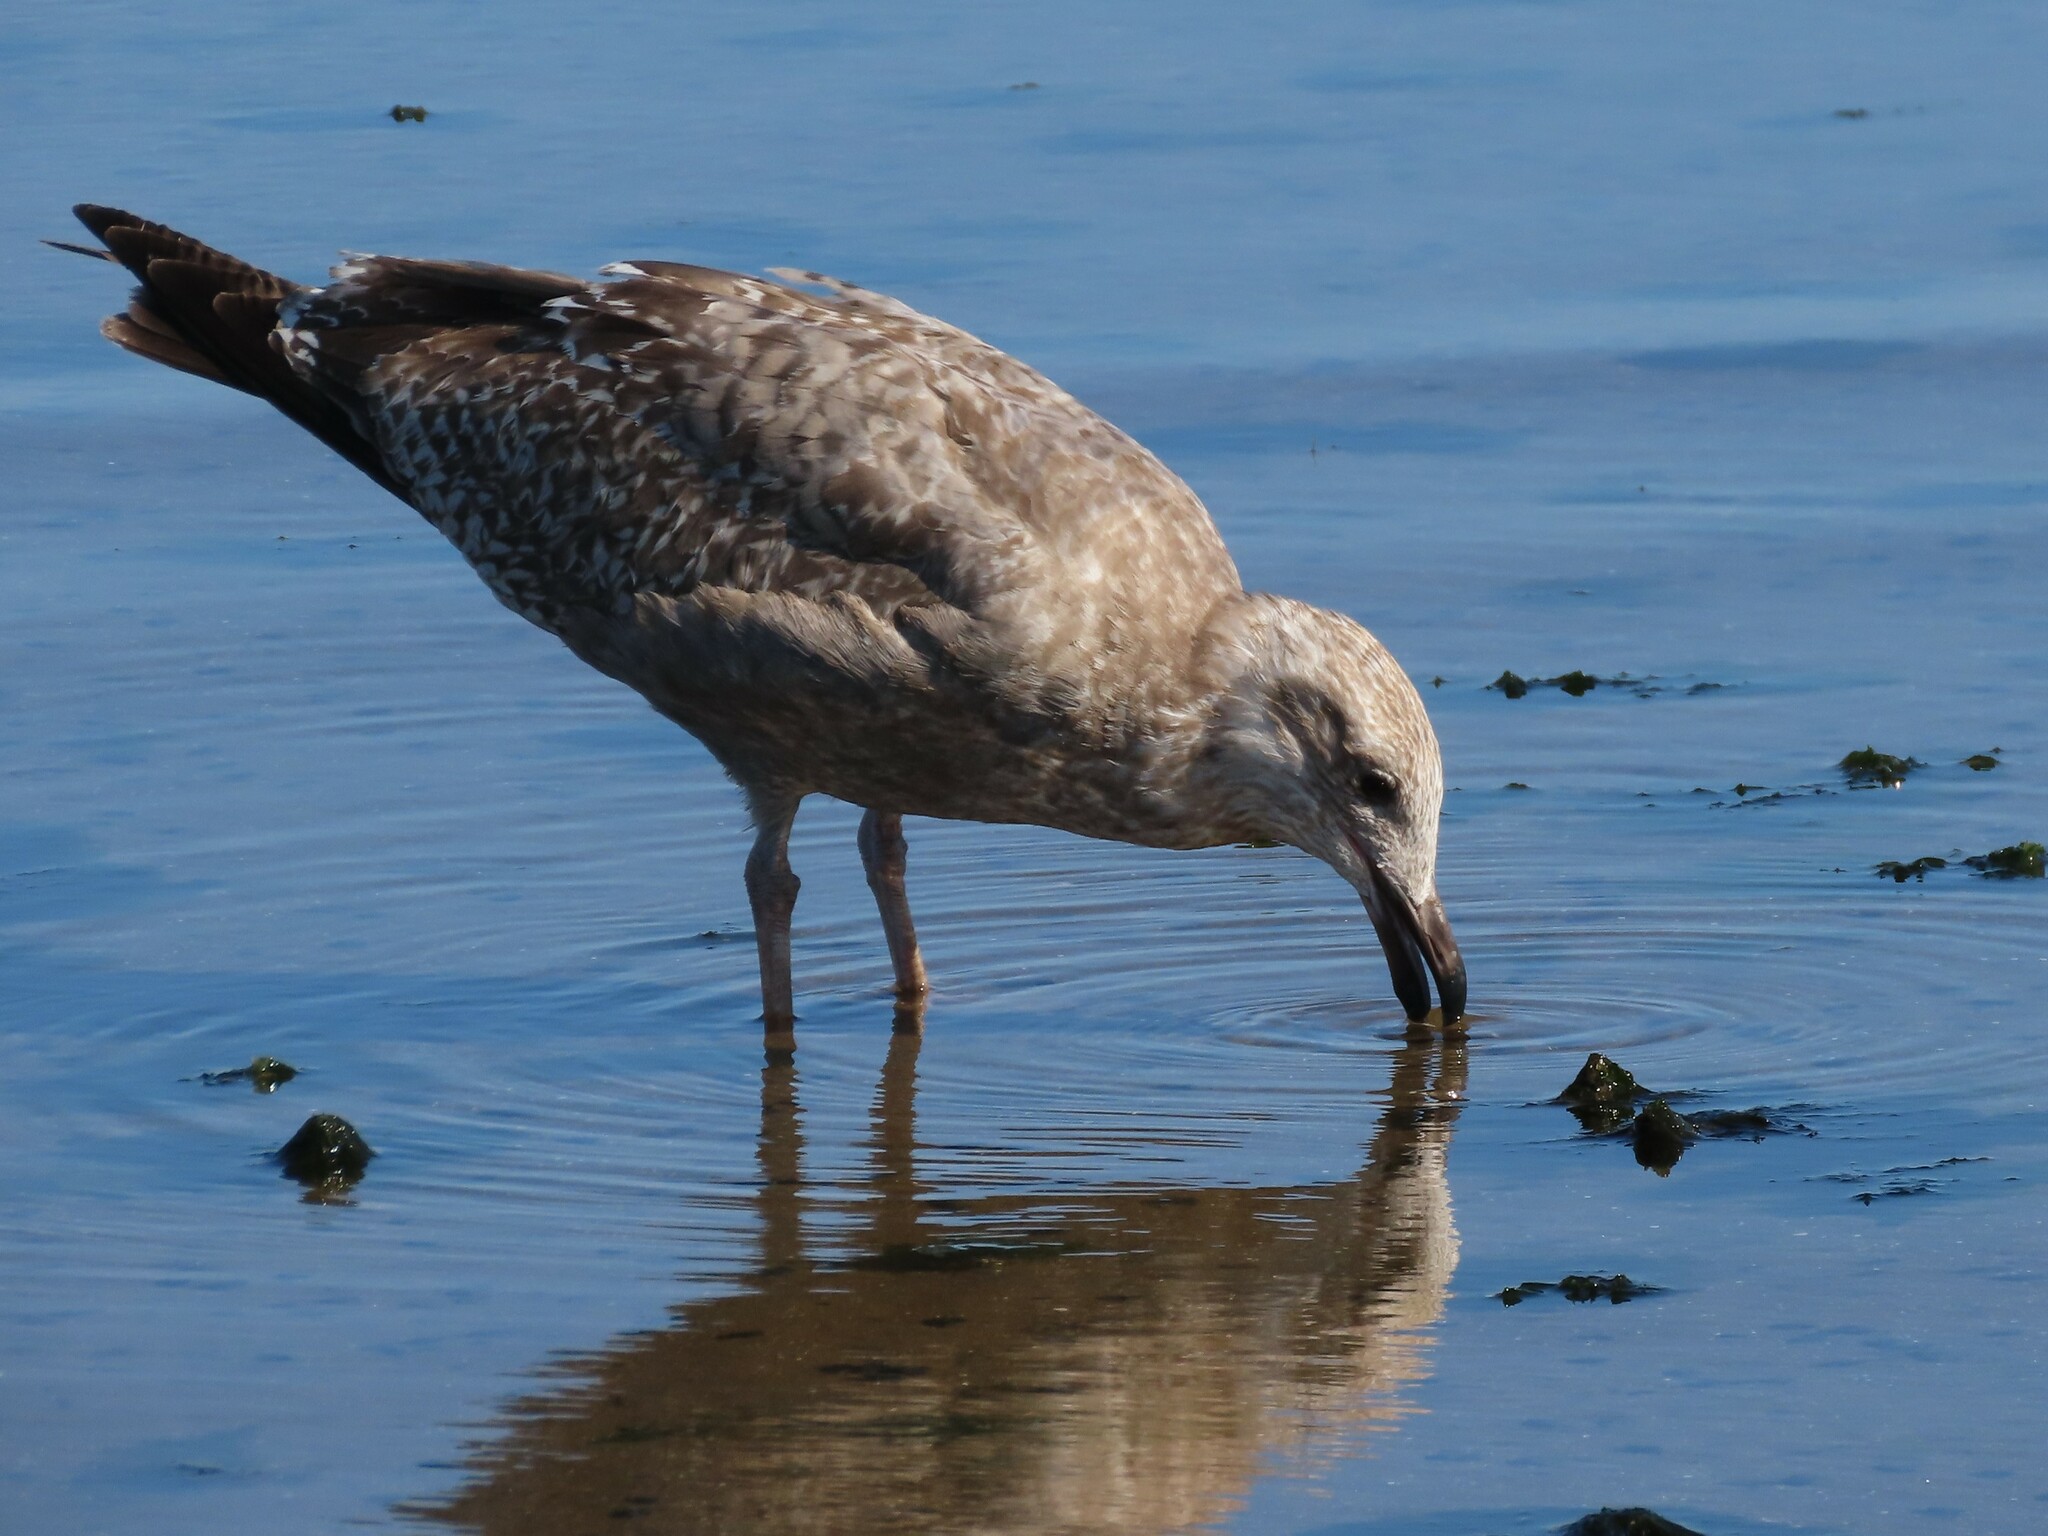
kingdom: Animalia
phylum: Chordata
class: Aves
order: Charadriiformes
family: Laridae
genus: Larus
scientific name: Larus argentatus
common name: Herring gull
